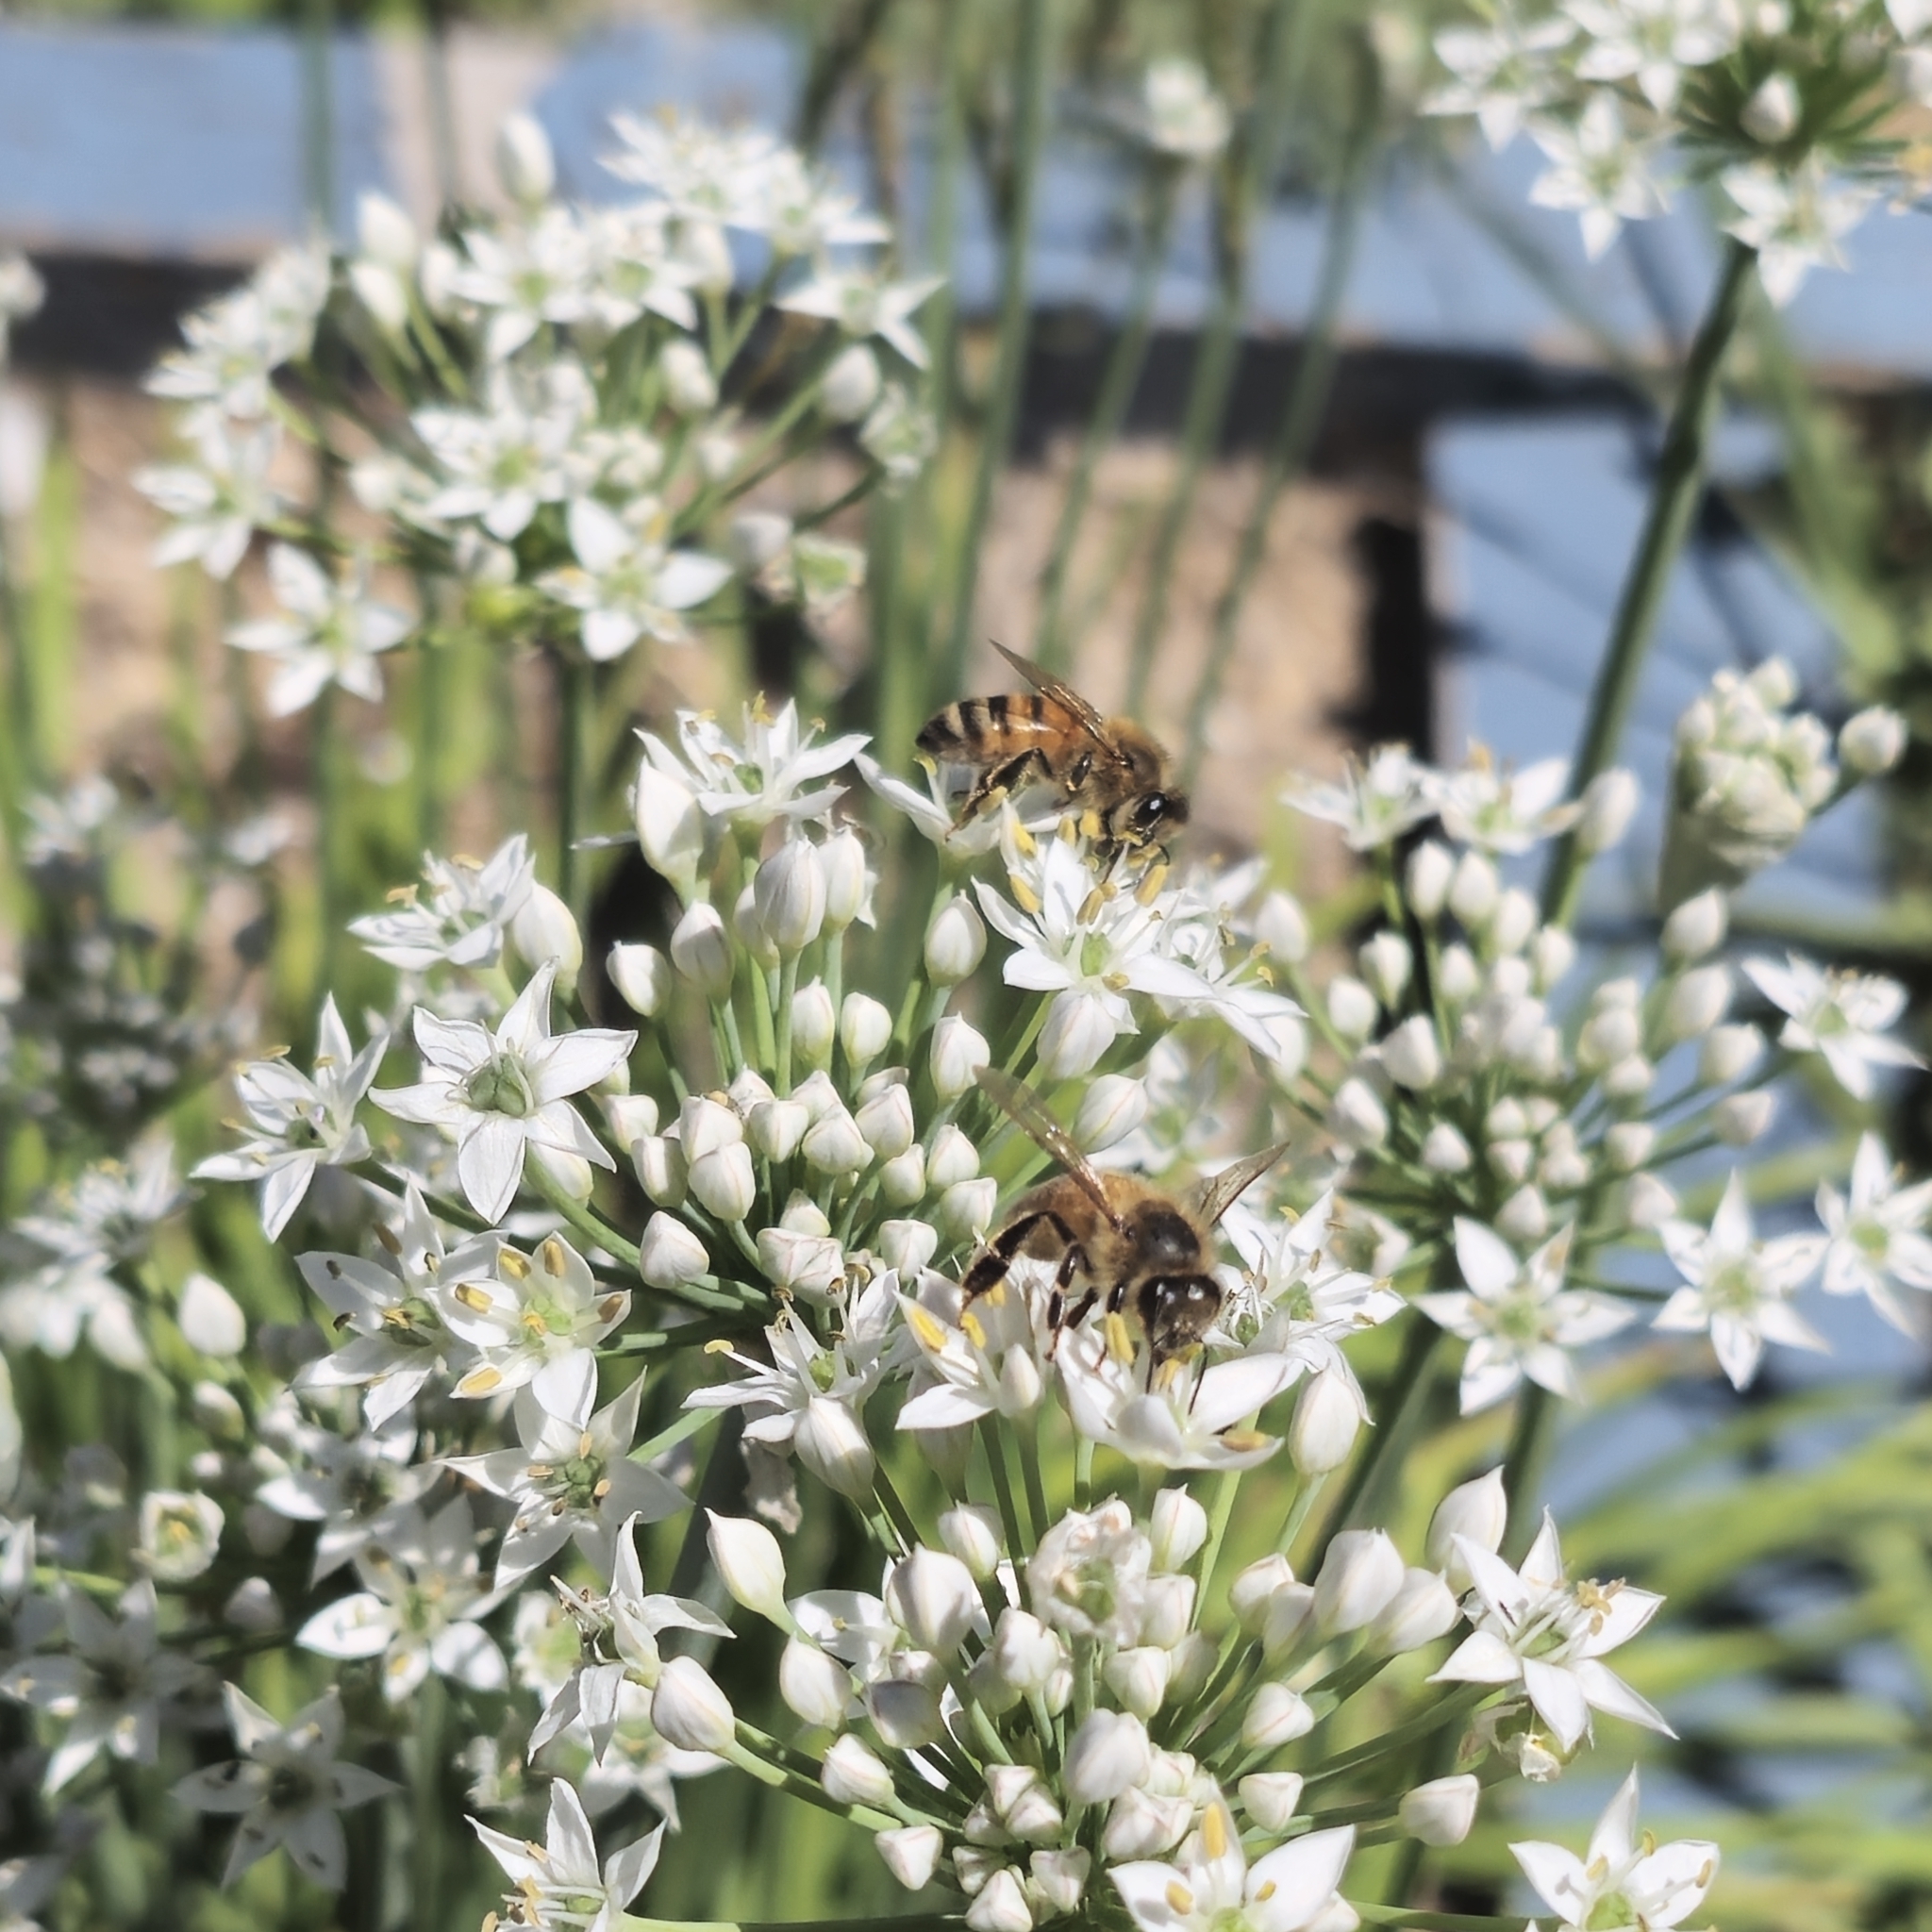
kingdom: Animalia
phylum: Arthropoda
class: Insecta
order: Hymenoptera
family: Apidae
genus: Apis
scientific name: Apis mellifera
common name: Honey bee
